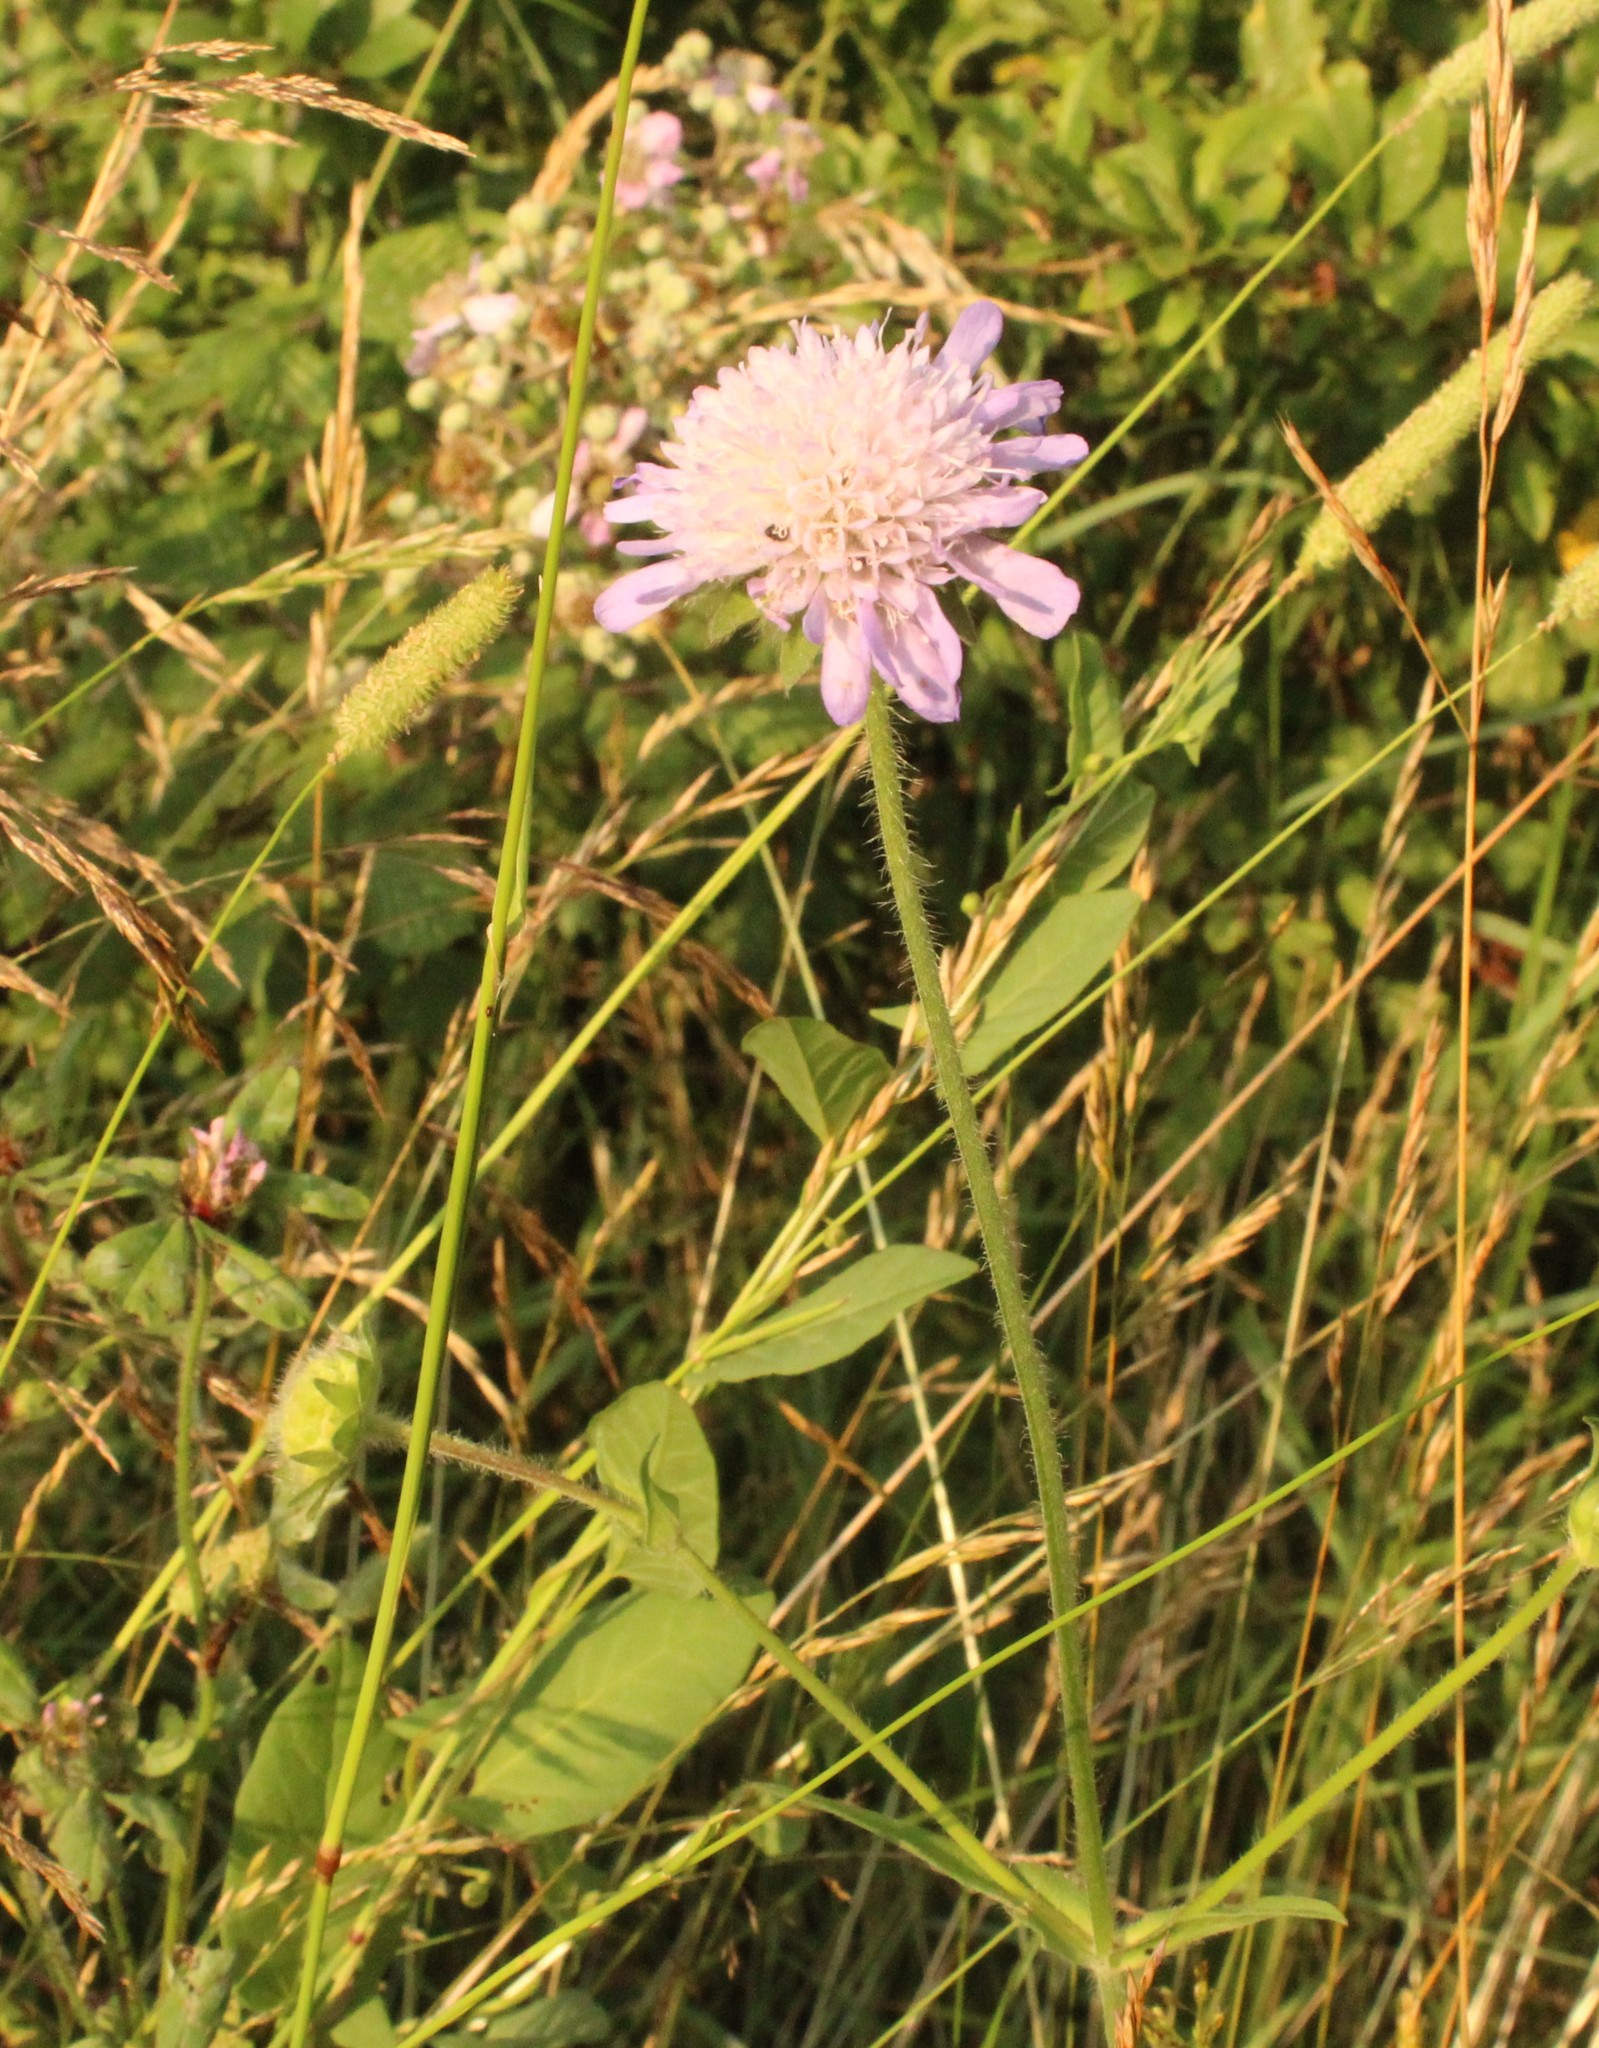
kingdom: Plantae
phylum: Tracheophyta
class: Magnoliopsida
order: Dipsacales
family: Caprifoliaceae
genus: Knautia
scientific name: Knautia arvensis
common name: Field scabiosa
